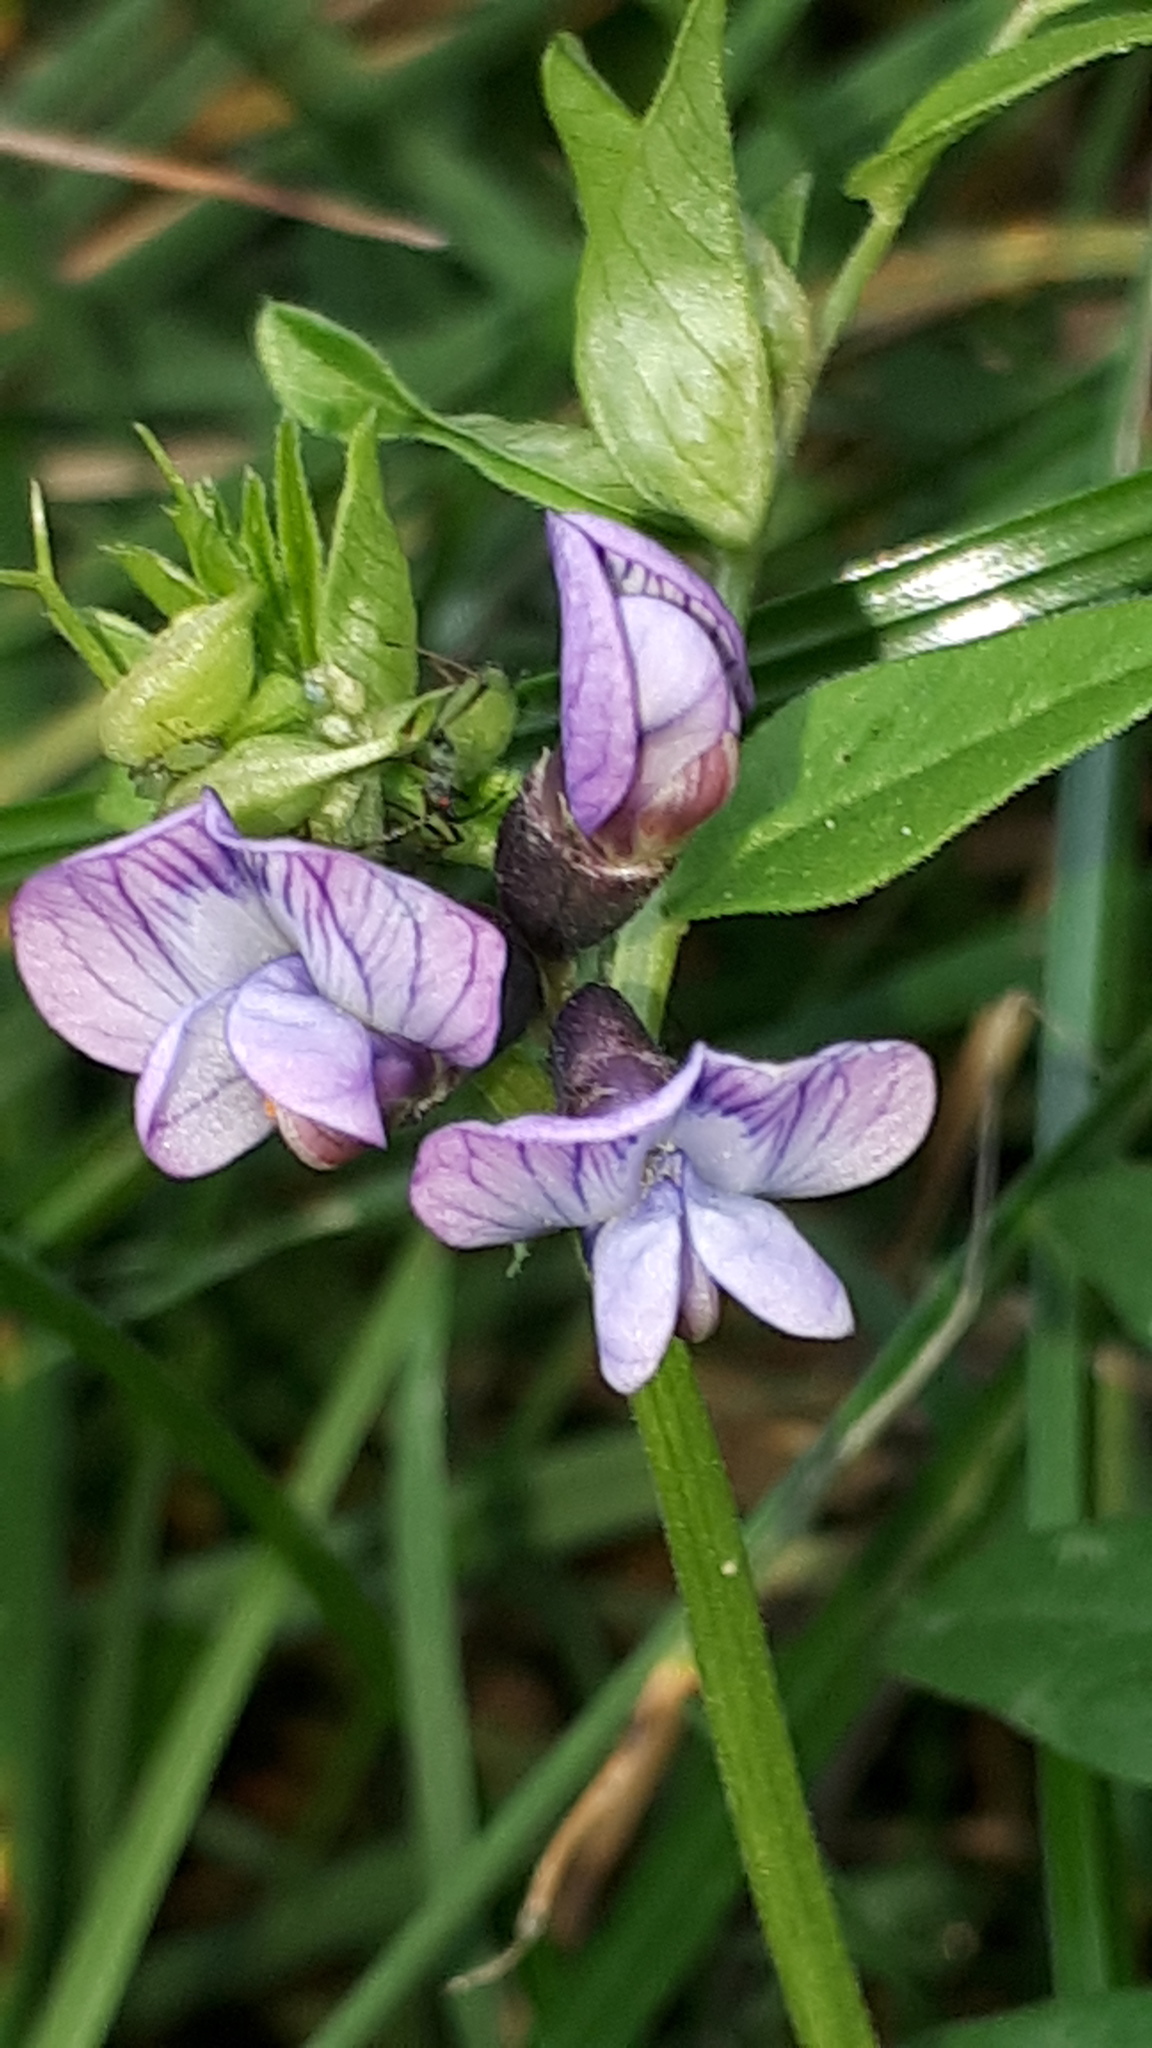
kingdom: Plantae
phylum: Tracheophyta
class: Magnoliopsida
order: Fabales
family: Fabaceae
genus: Vicia
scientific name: Vicia sepium
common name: Bush vetch
